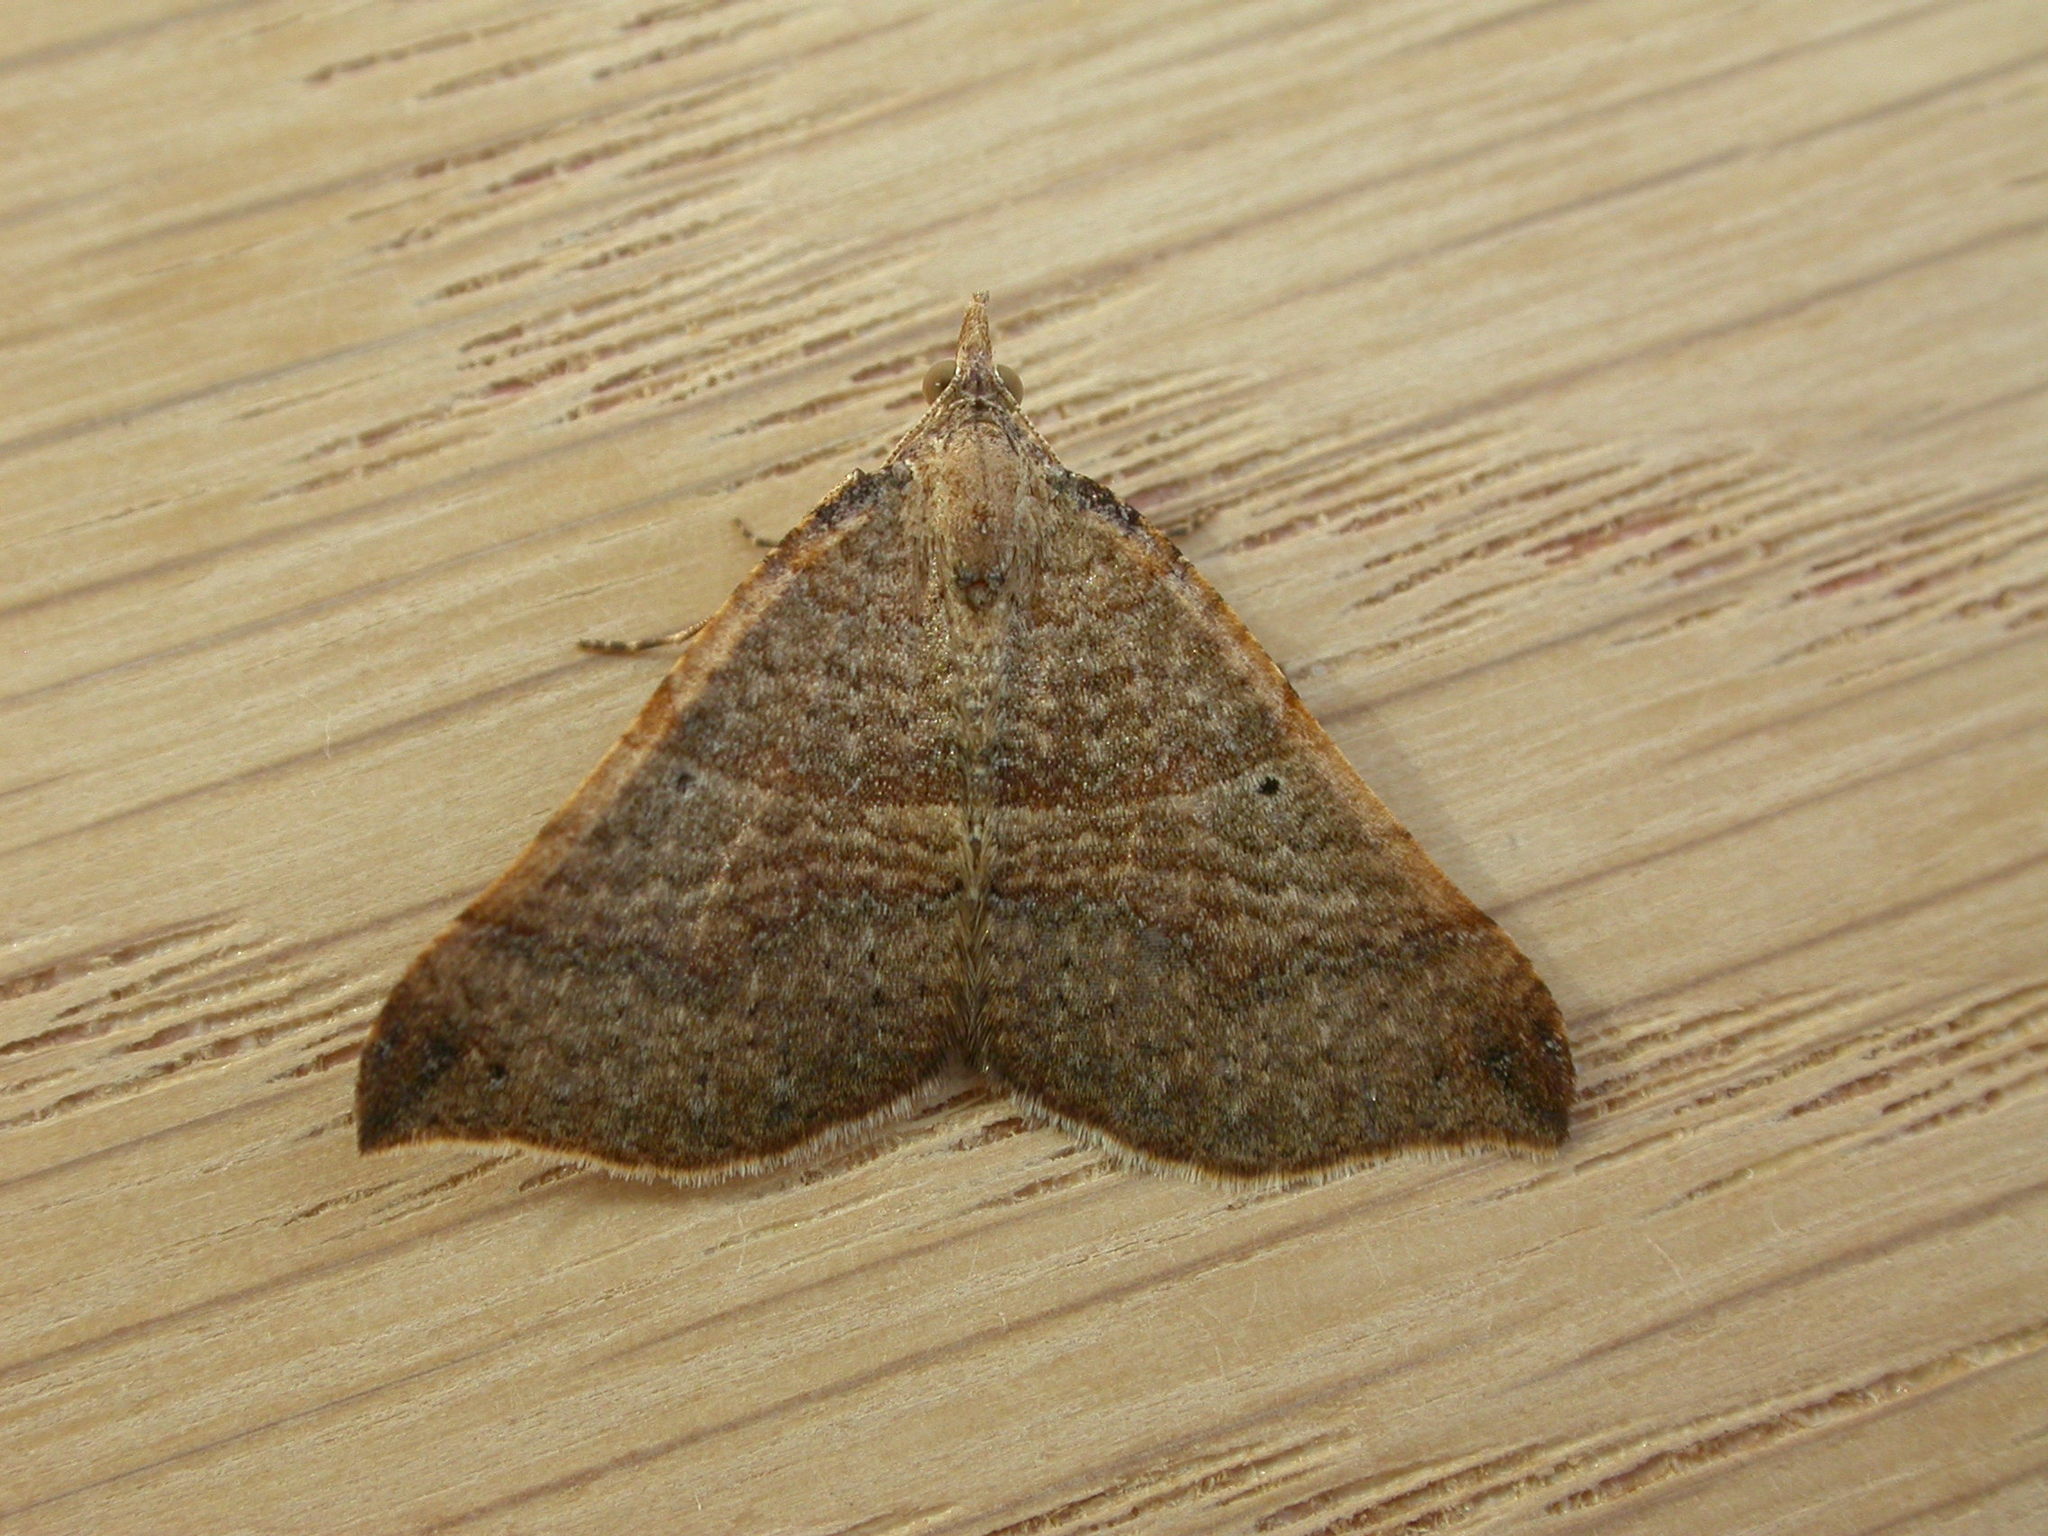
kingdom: Animalia
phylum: Arthropoda
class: Insecta
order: Lepidoptera
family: Geometridae
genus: Anachloris
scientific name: Anachloris uncinata
